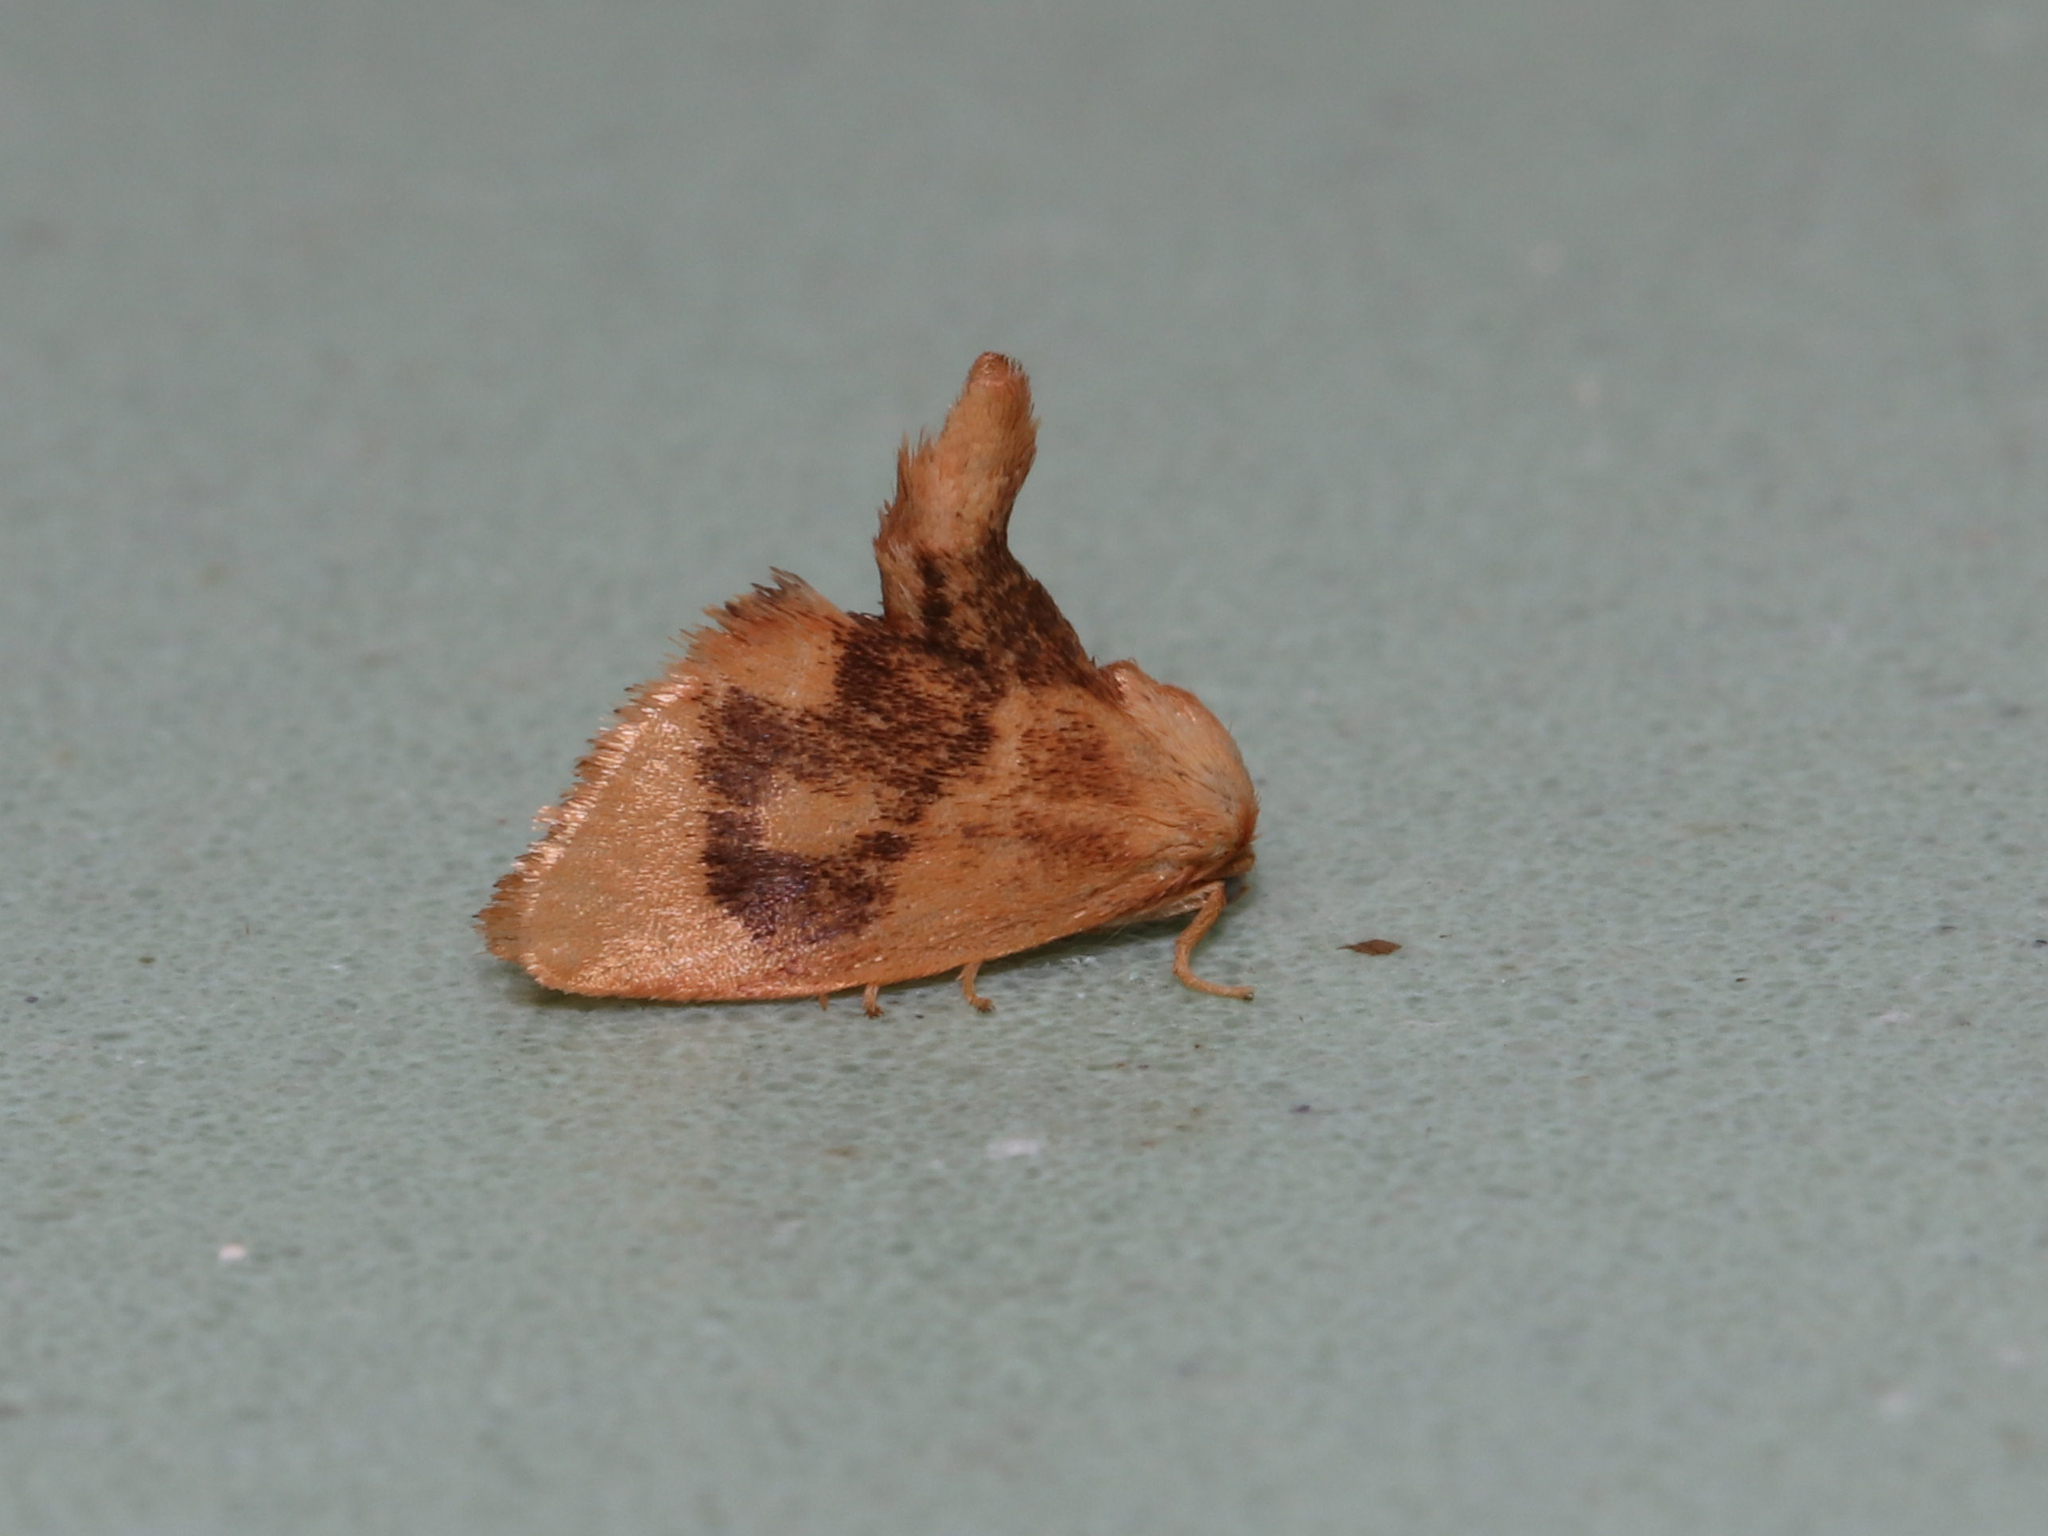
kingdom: Animalia
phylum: Arthropoda
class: Insecta
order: Lepidoptera
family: Limacodidae
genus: Tortricidia
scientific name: Tortricidia flexuosa
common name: Abbreviated button slug moth
